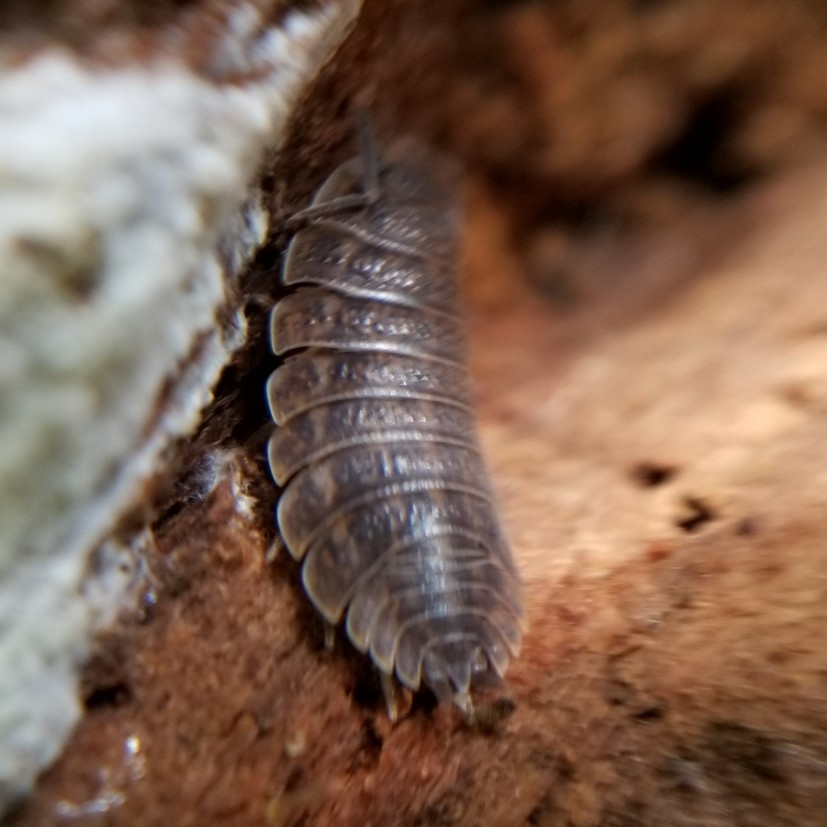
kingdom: Animalia
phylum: Arthropoda
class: Malacostraca
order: Isopoda
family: Trachelipodidae
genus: Trachelipus
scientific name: Trachelipus rathkii
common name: Isopod
